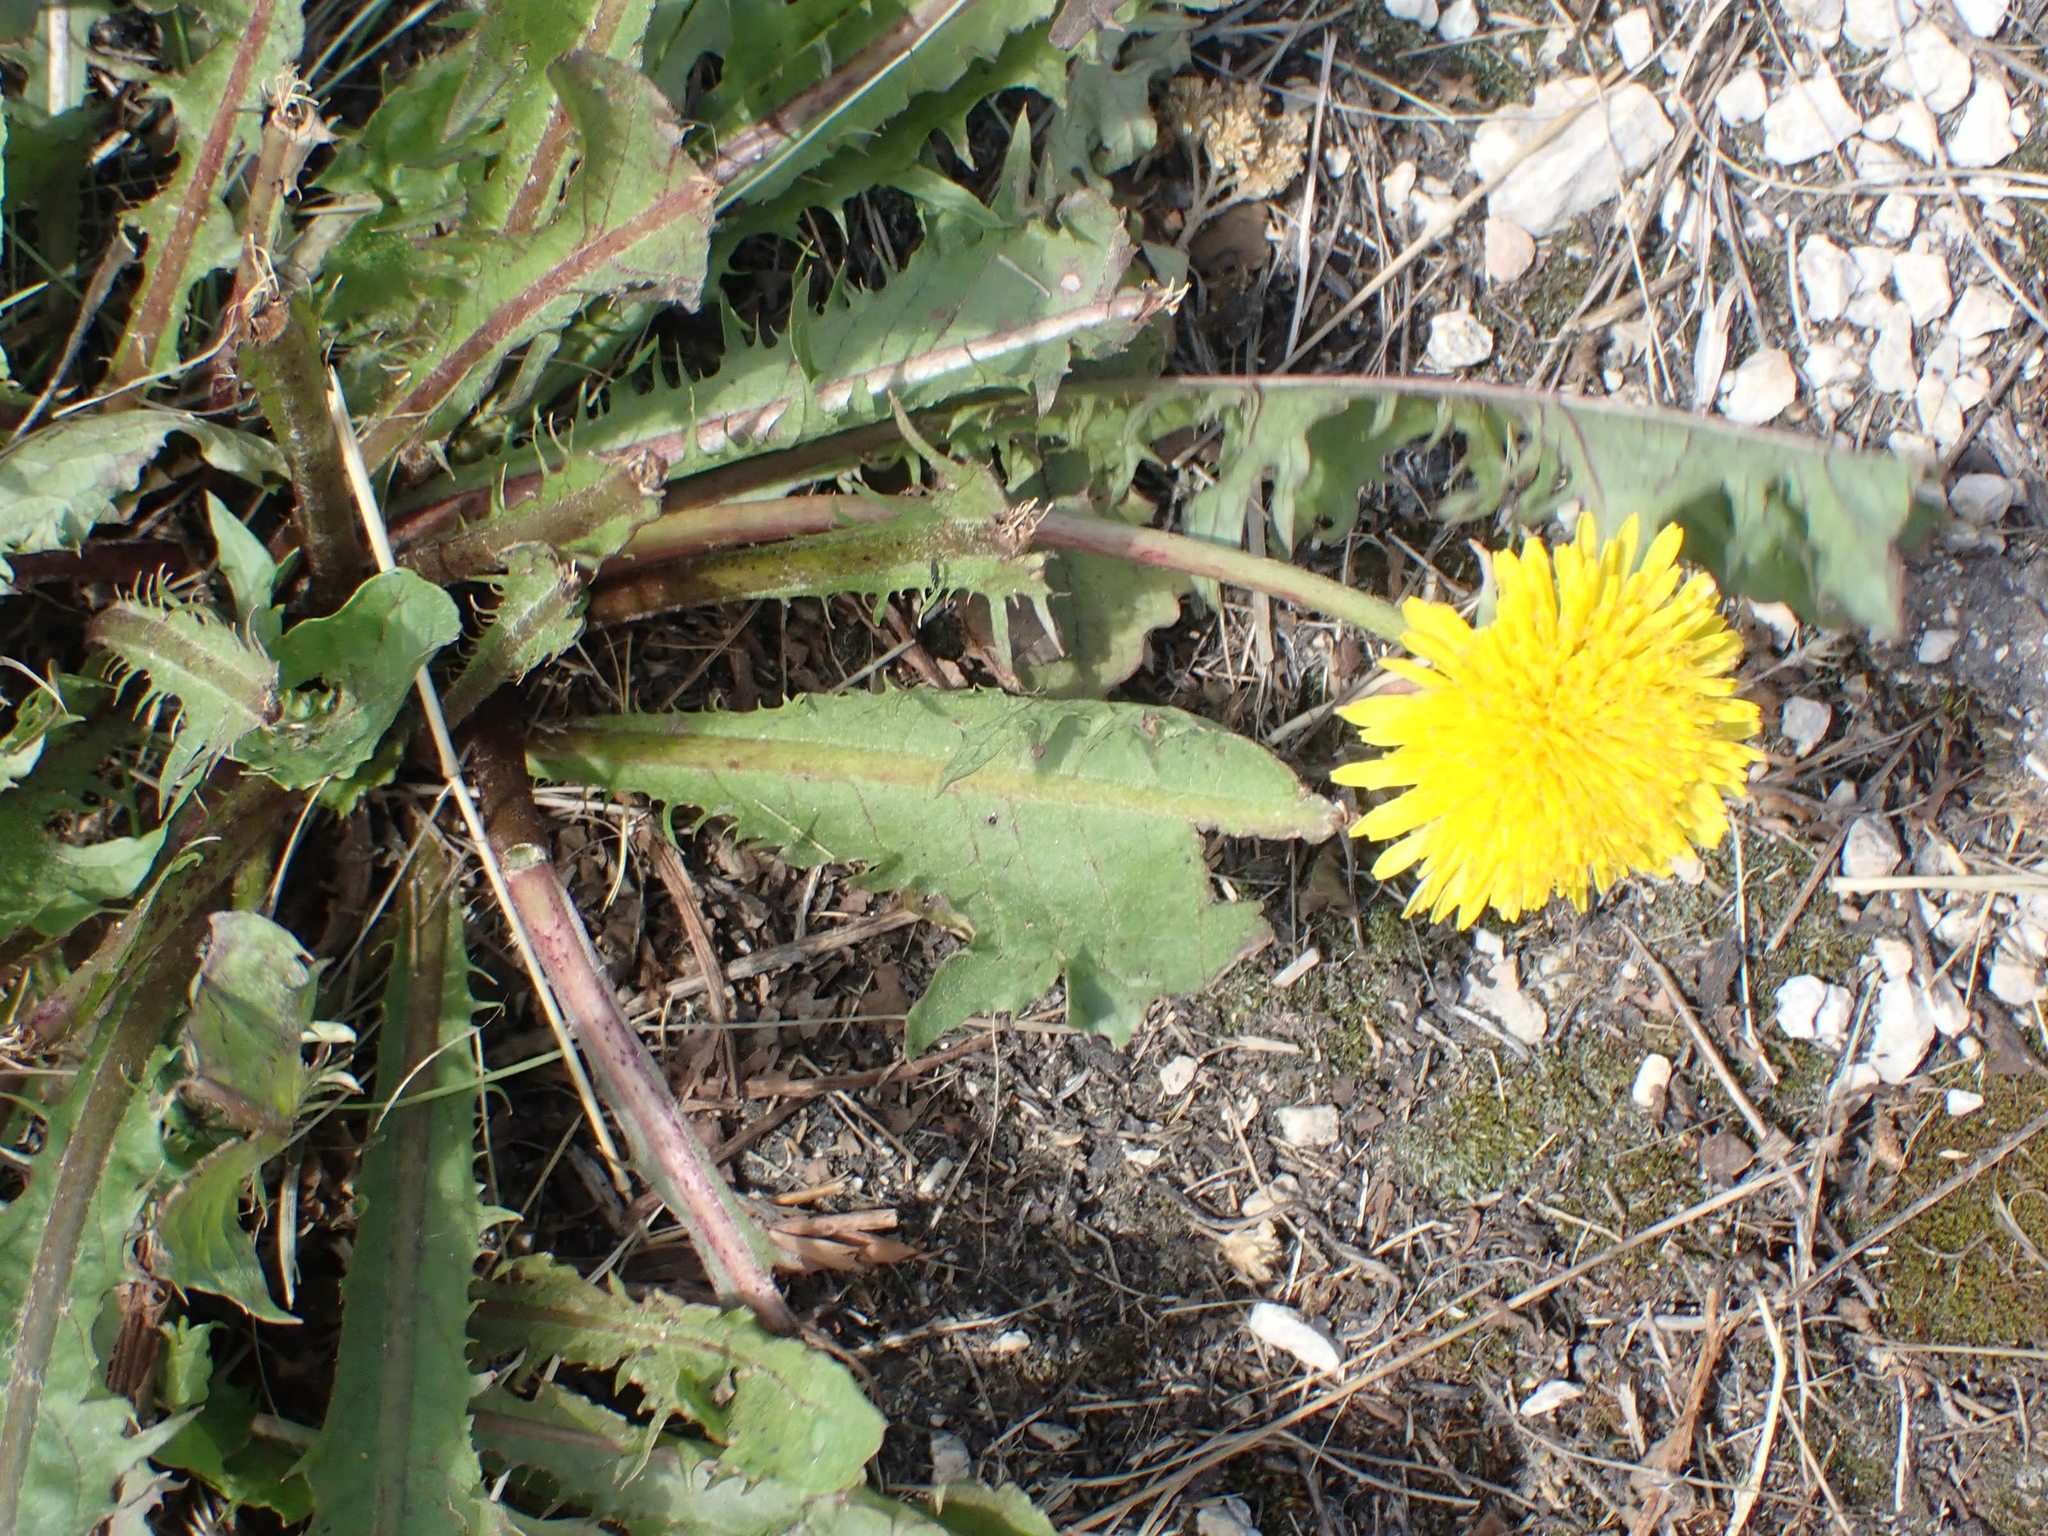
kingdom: Plantae
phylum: Tracheophyta
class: Magnoliopsida
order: Asterales
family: Asteraceae
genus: Taraxacum
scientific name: Taraxacum officinale
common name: Common dandelion
